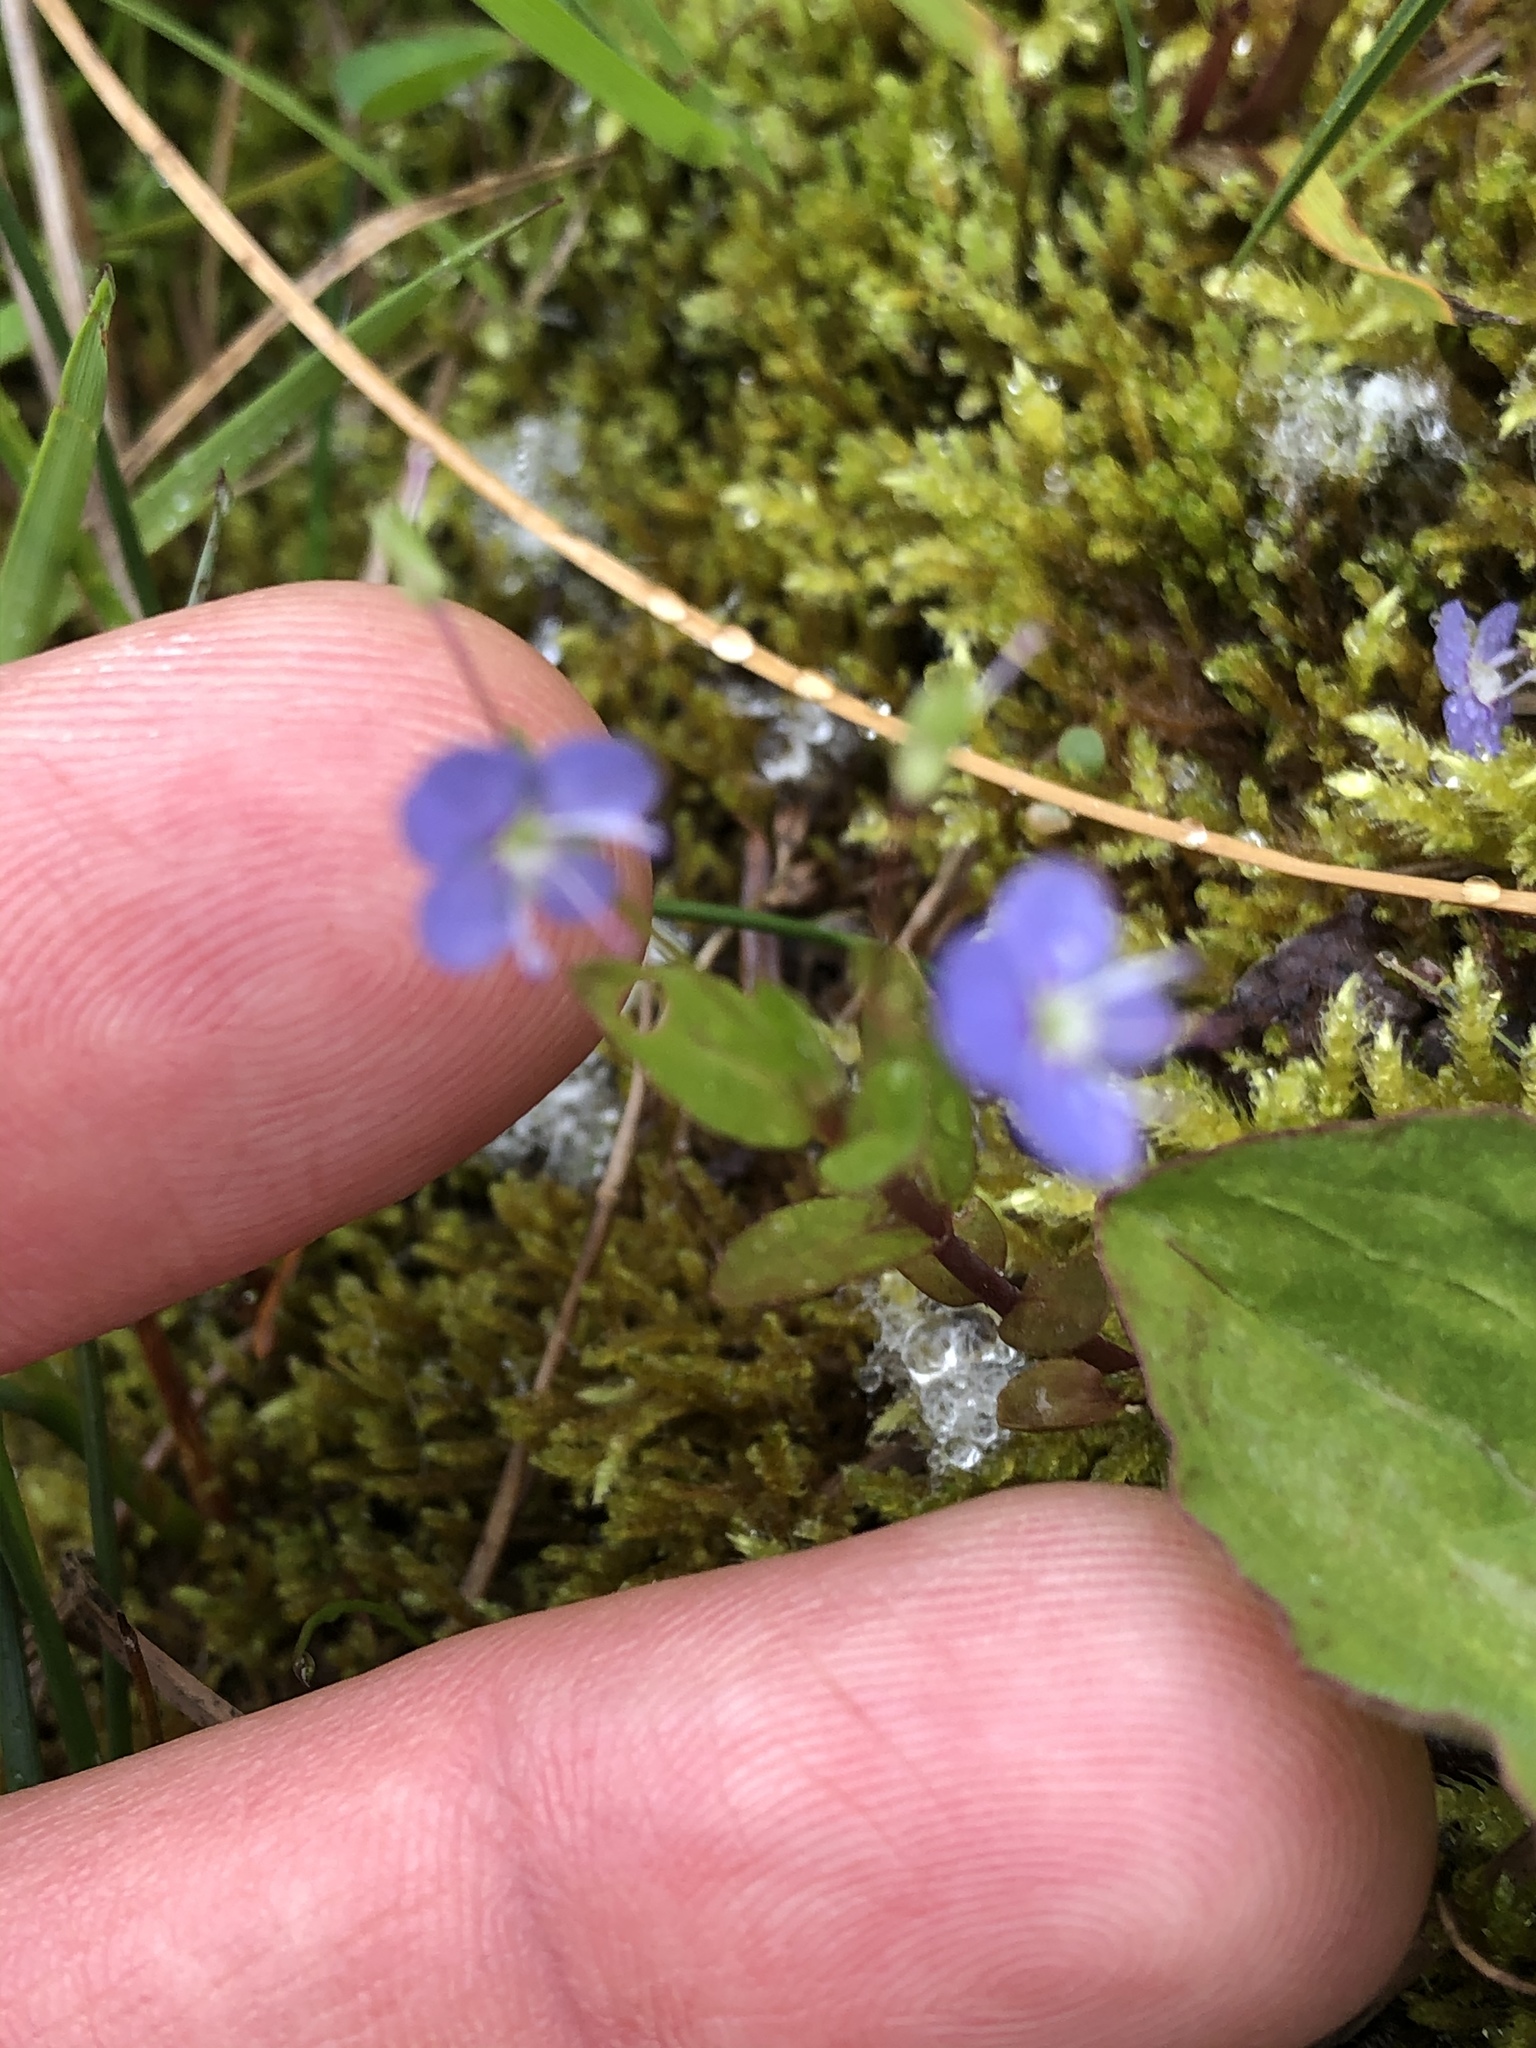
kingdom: Plantae
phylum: Tracheophyta
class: Magnoliopsida
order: Lamiales
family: Plantaginaceae
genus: Veronica
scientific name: Veronica americana
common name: American brooklime
